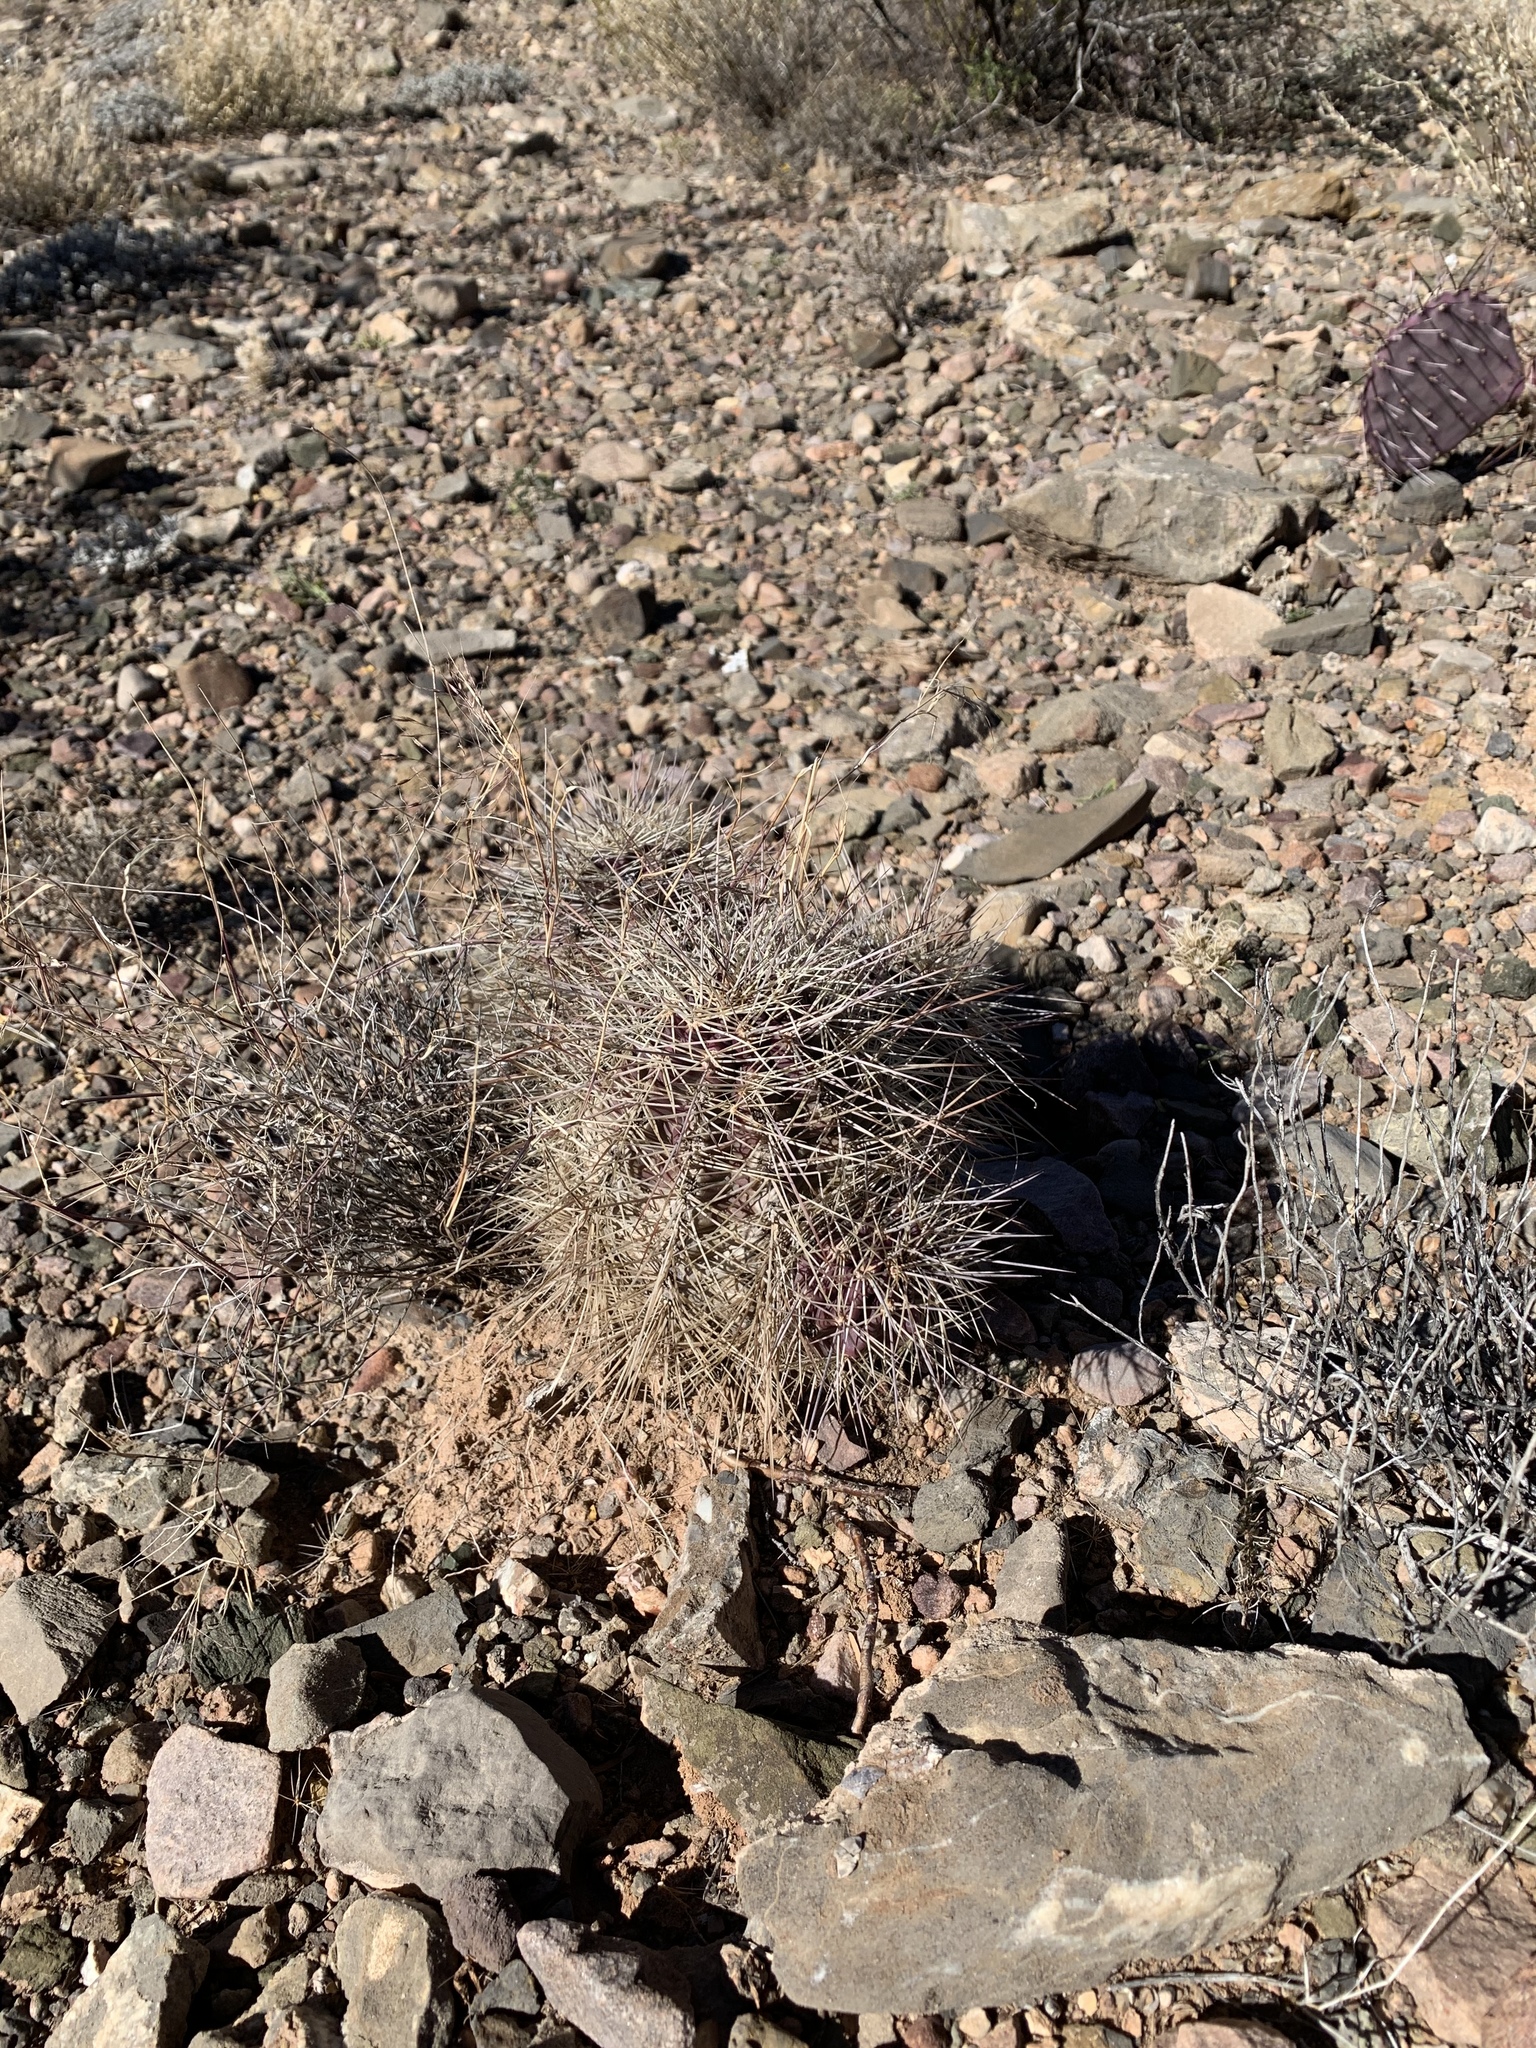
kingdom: Plantae
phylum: Tracheophyta
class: Magnoliopsida
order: Caryophyllales
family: Cactaceae
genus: Echinocereus
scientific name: Echinocereus coccineus
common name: Scarlet hedgehog cactus
